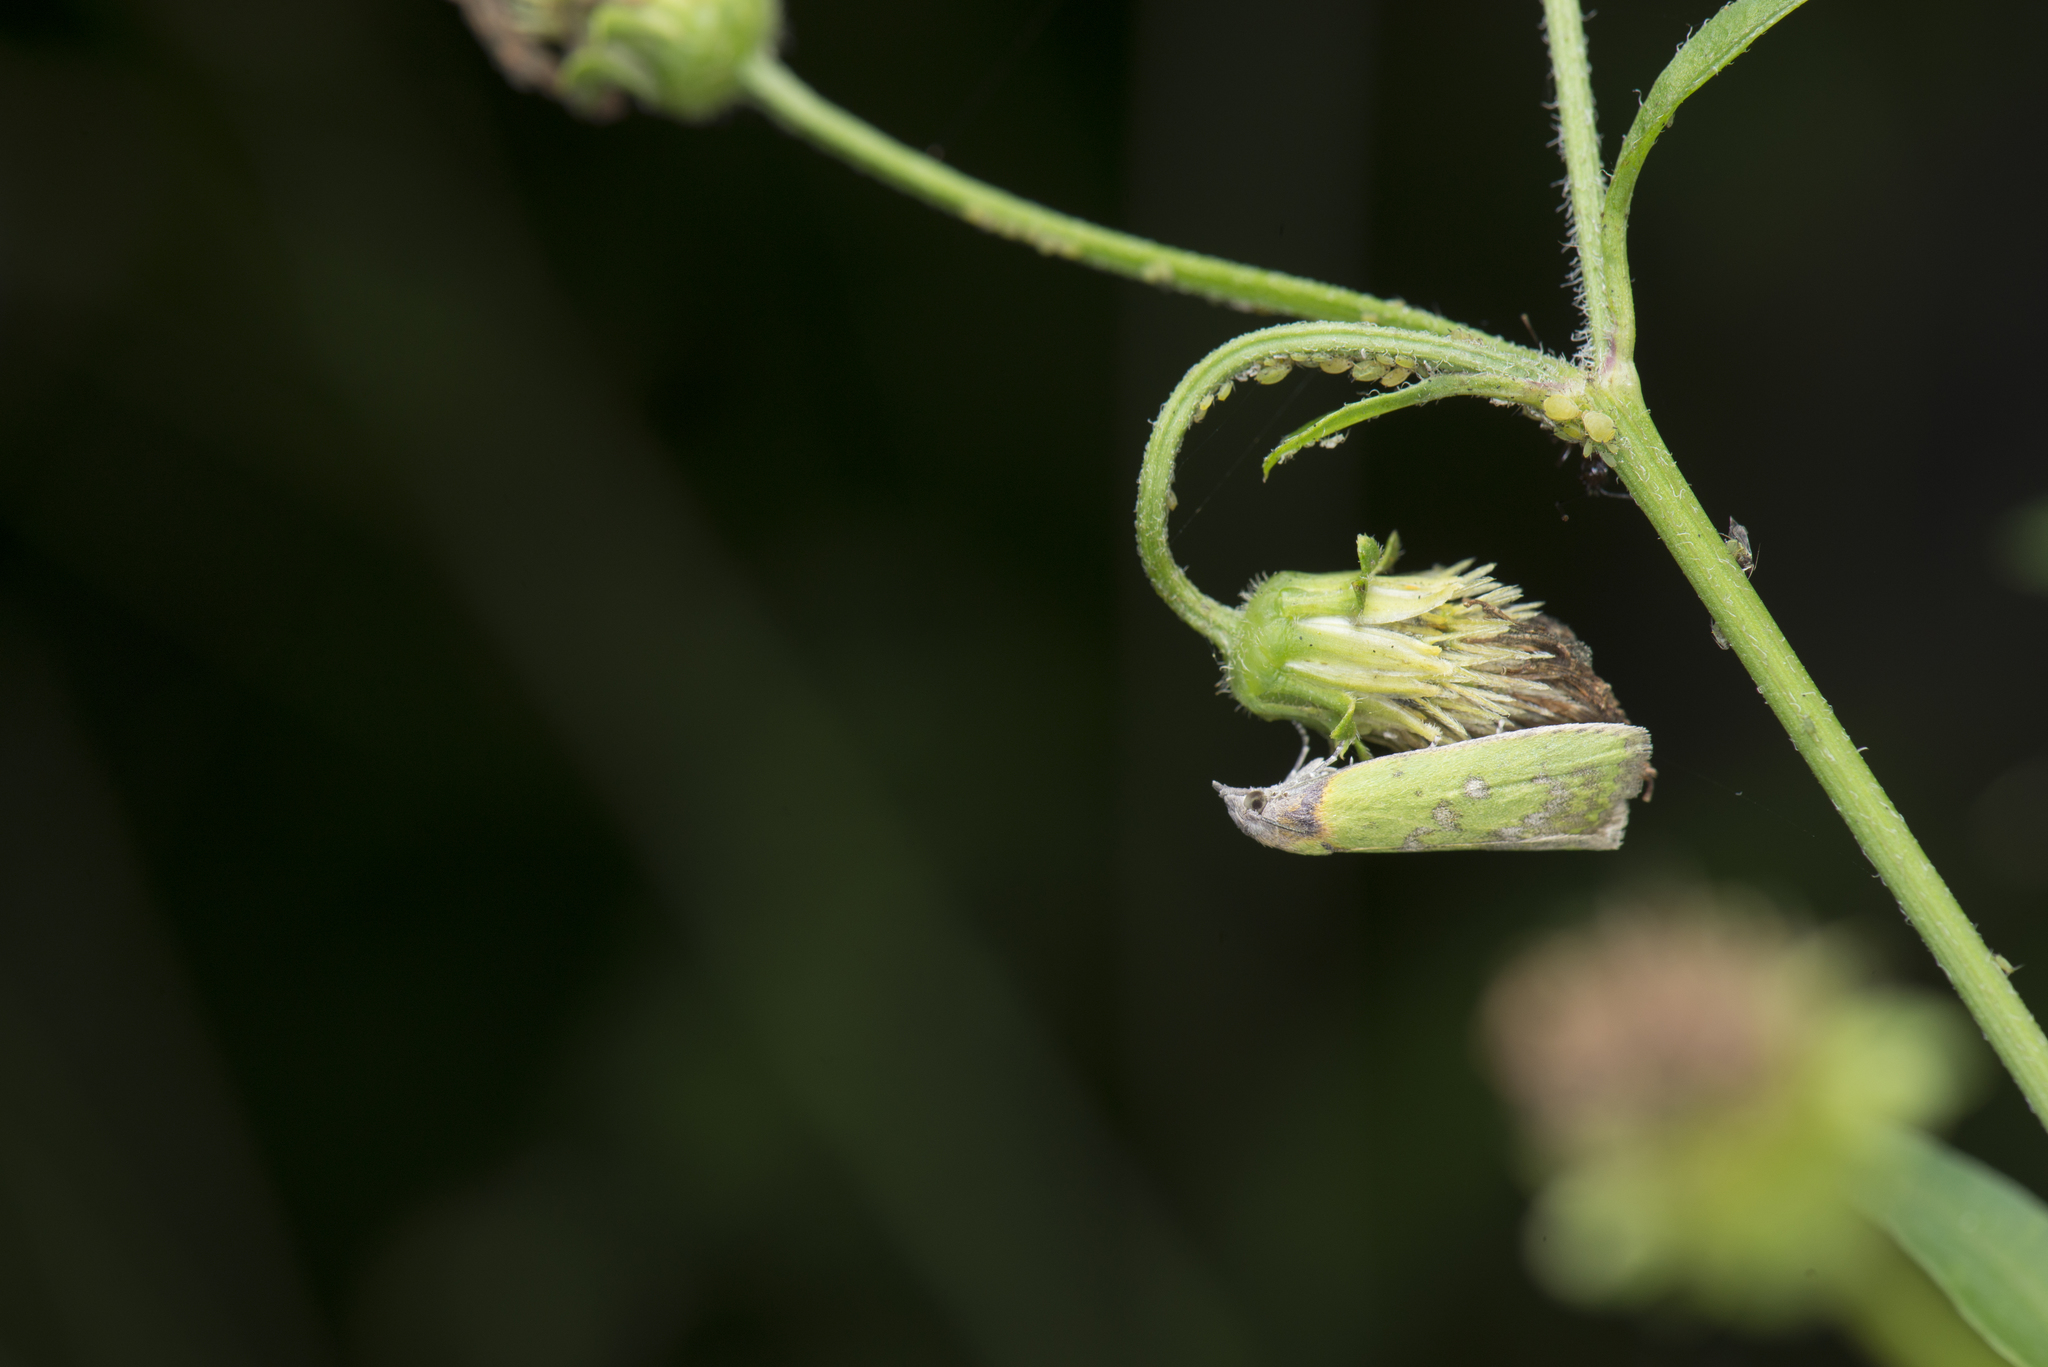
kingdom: Animalia
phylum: Arthropoda
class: Insecta
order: Lepidoptera
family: Pyralidae
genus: Doloessa
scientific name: Doloessa viridis
